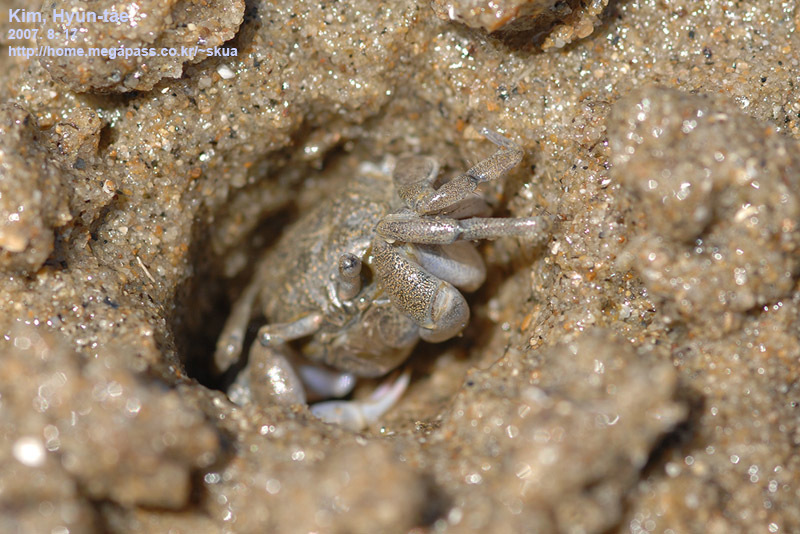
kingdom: Animalia
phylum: Arthropoda
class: Malacostraca
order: Decapoda
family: Dotillidae
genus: Scopimera
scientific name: Scopimera globosa
